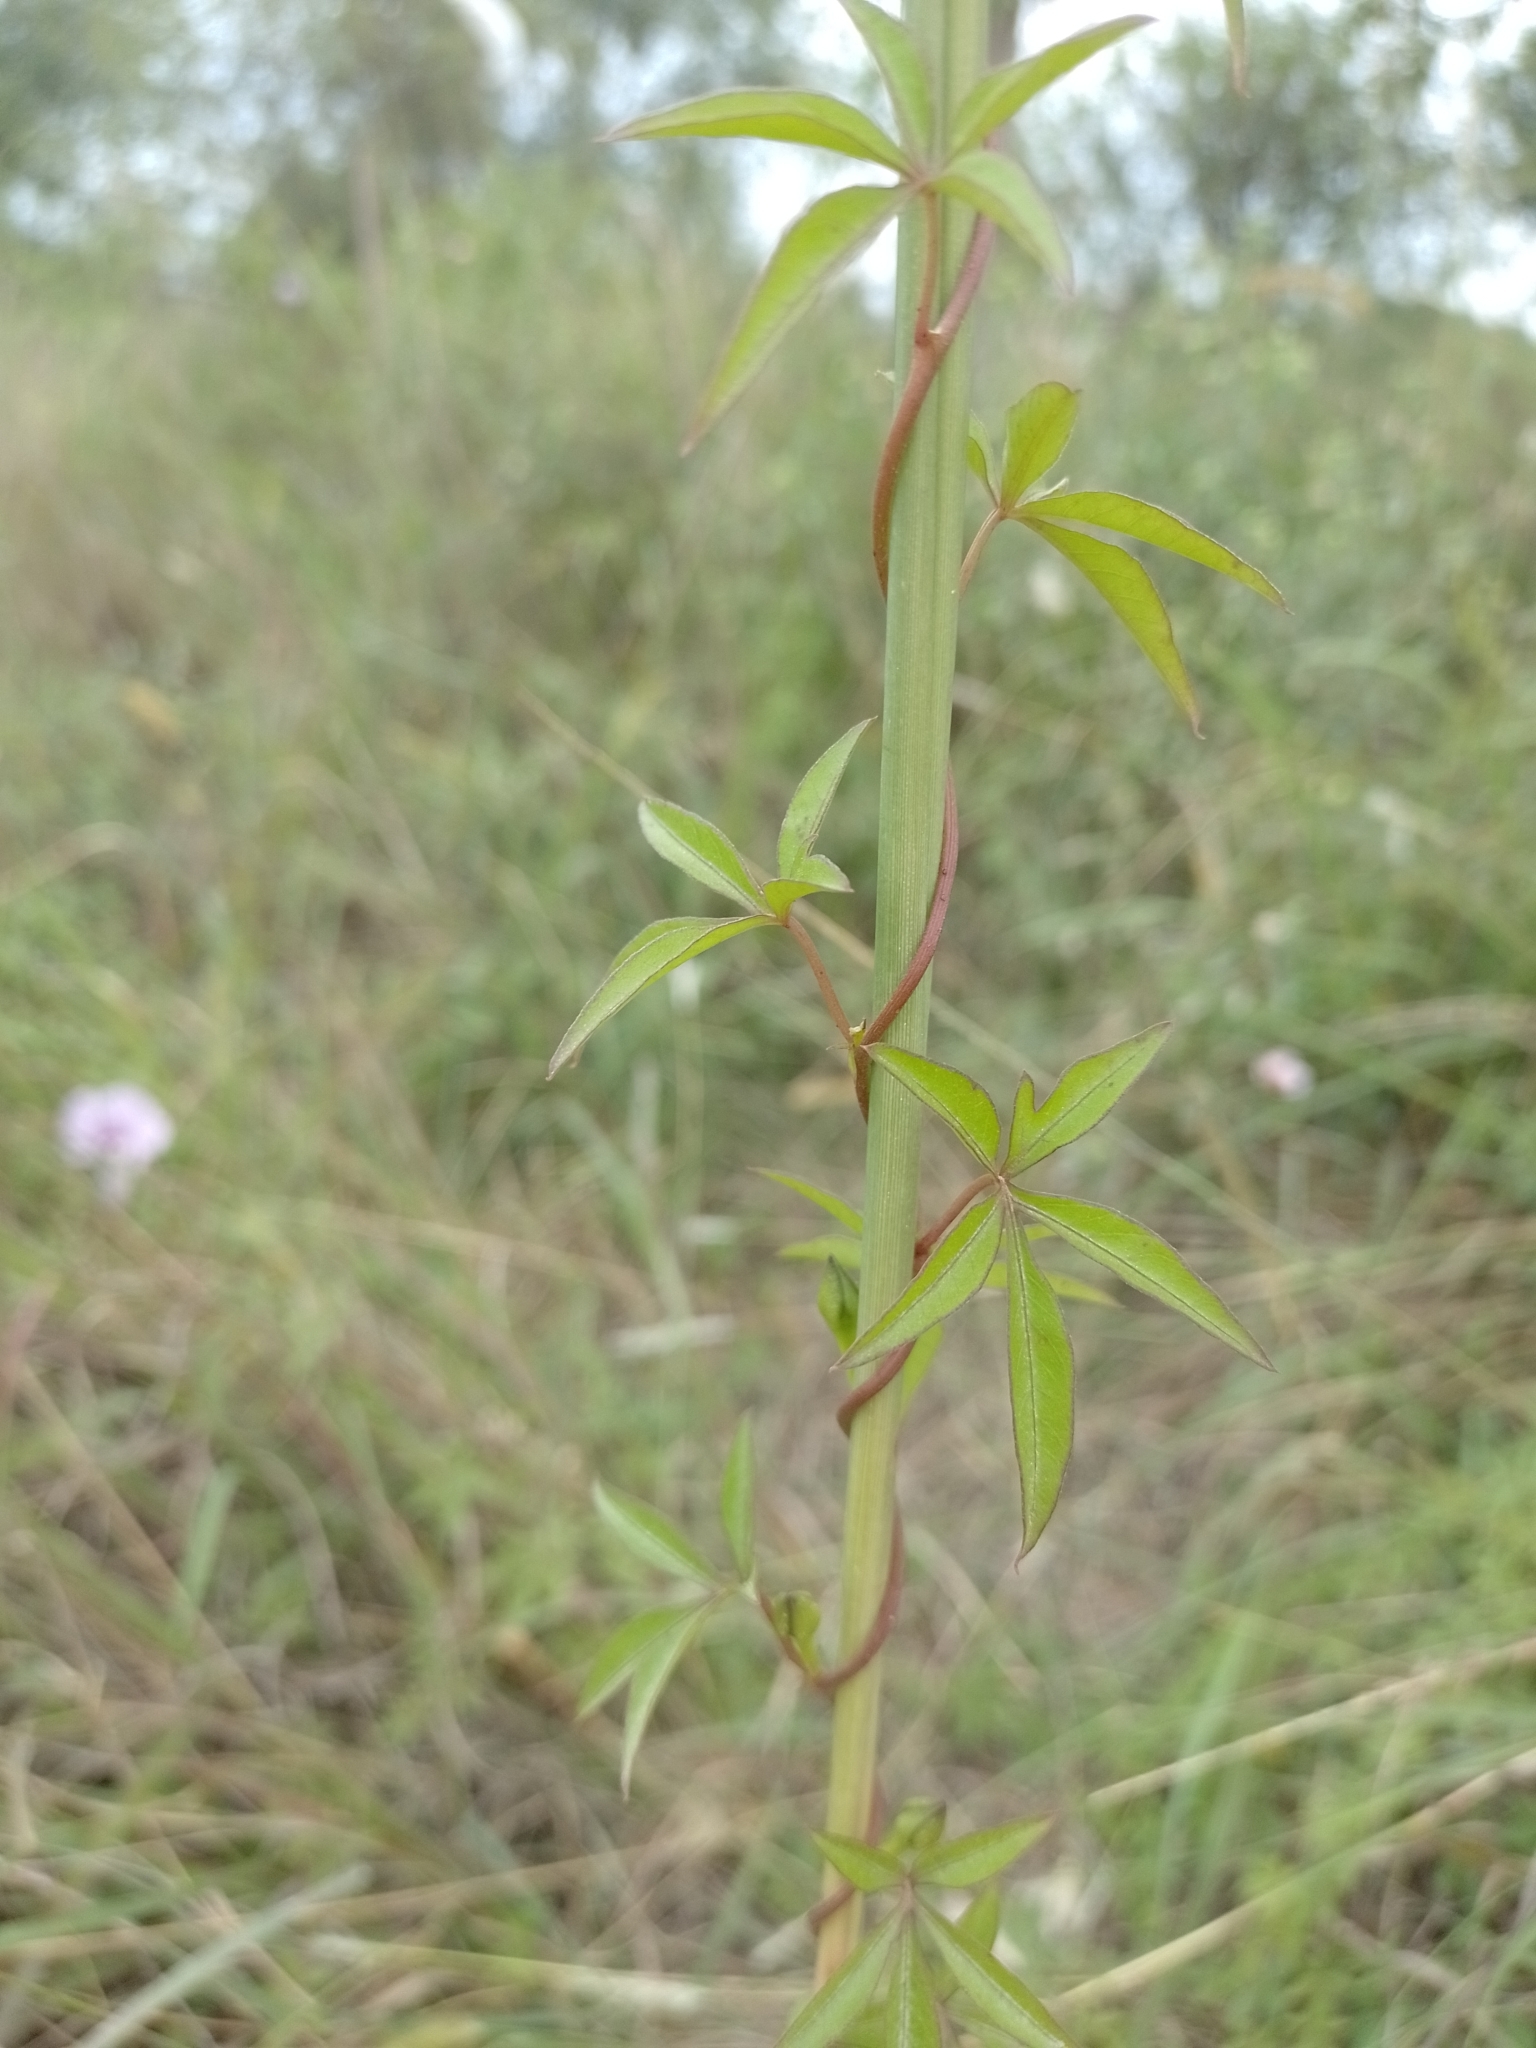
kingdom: Plantae
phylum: Tracheophyta
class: Magnoliopsida
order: Solanales
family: Convolvulaceae
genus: Ipomoea
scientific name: Ipomoea cairica
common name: Mile a minute vine
